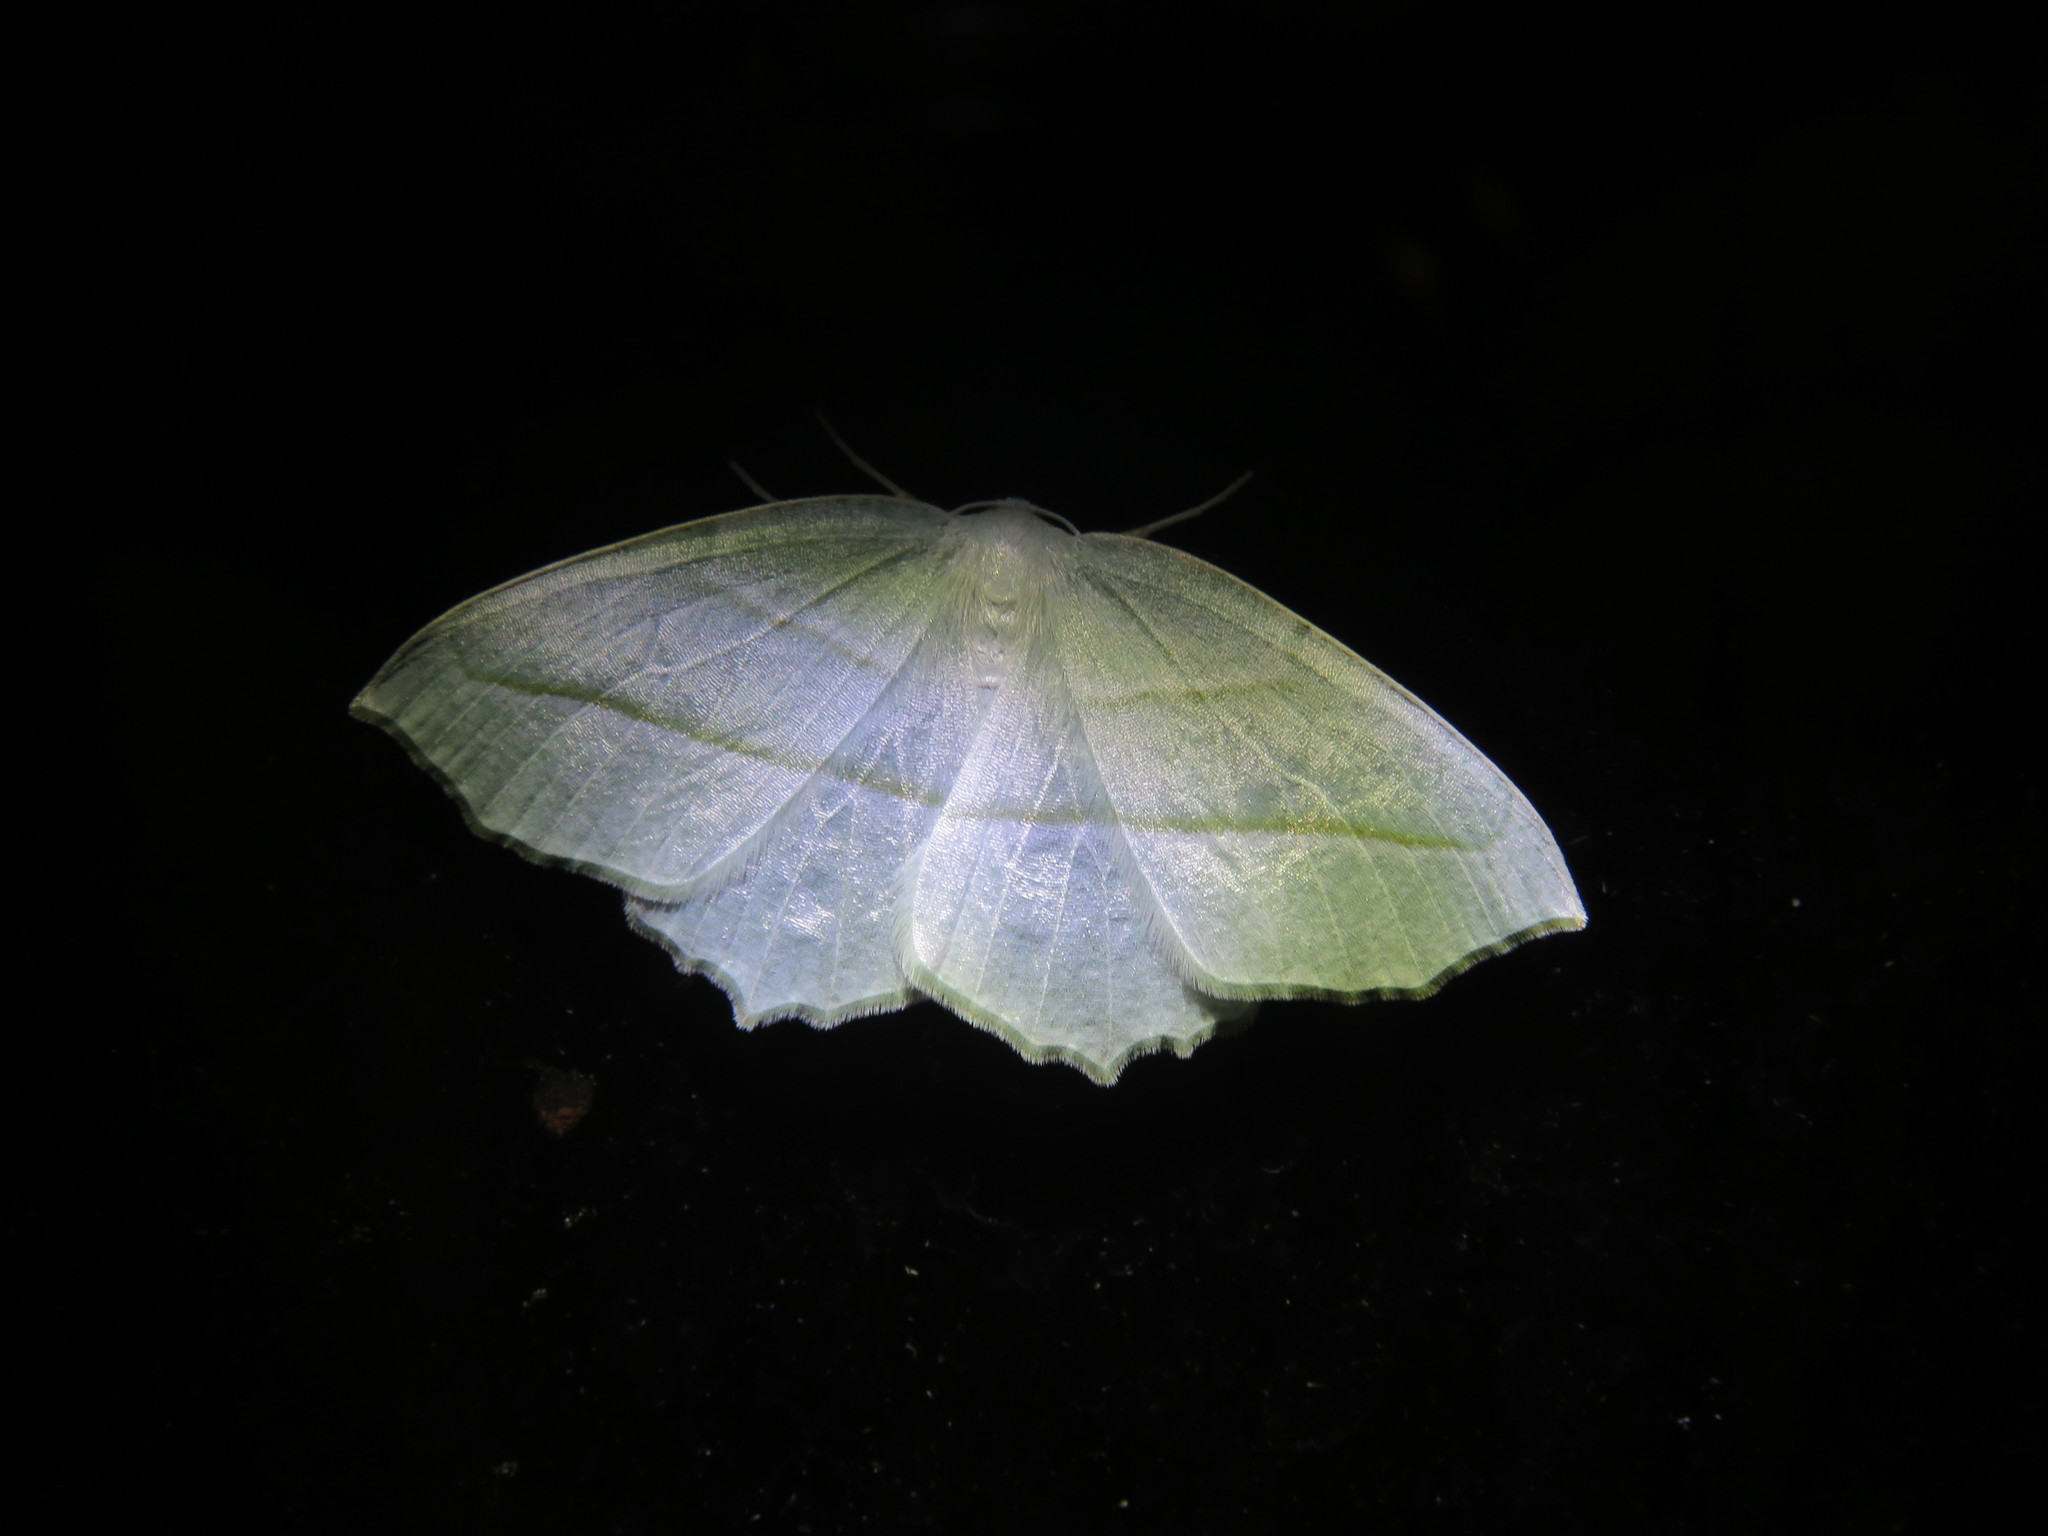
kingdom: Animalia
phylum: Arthropoda
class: Insecta
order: Lepidoptera
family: Geometridae
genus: Campaea
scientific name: Campaea perlata
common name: Fringed looper
